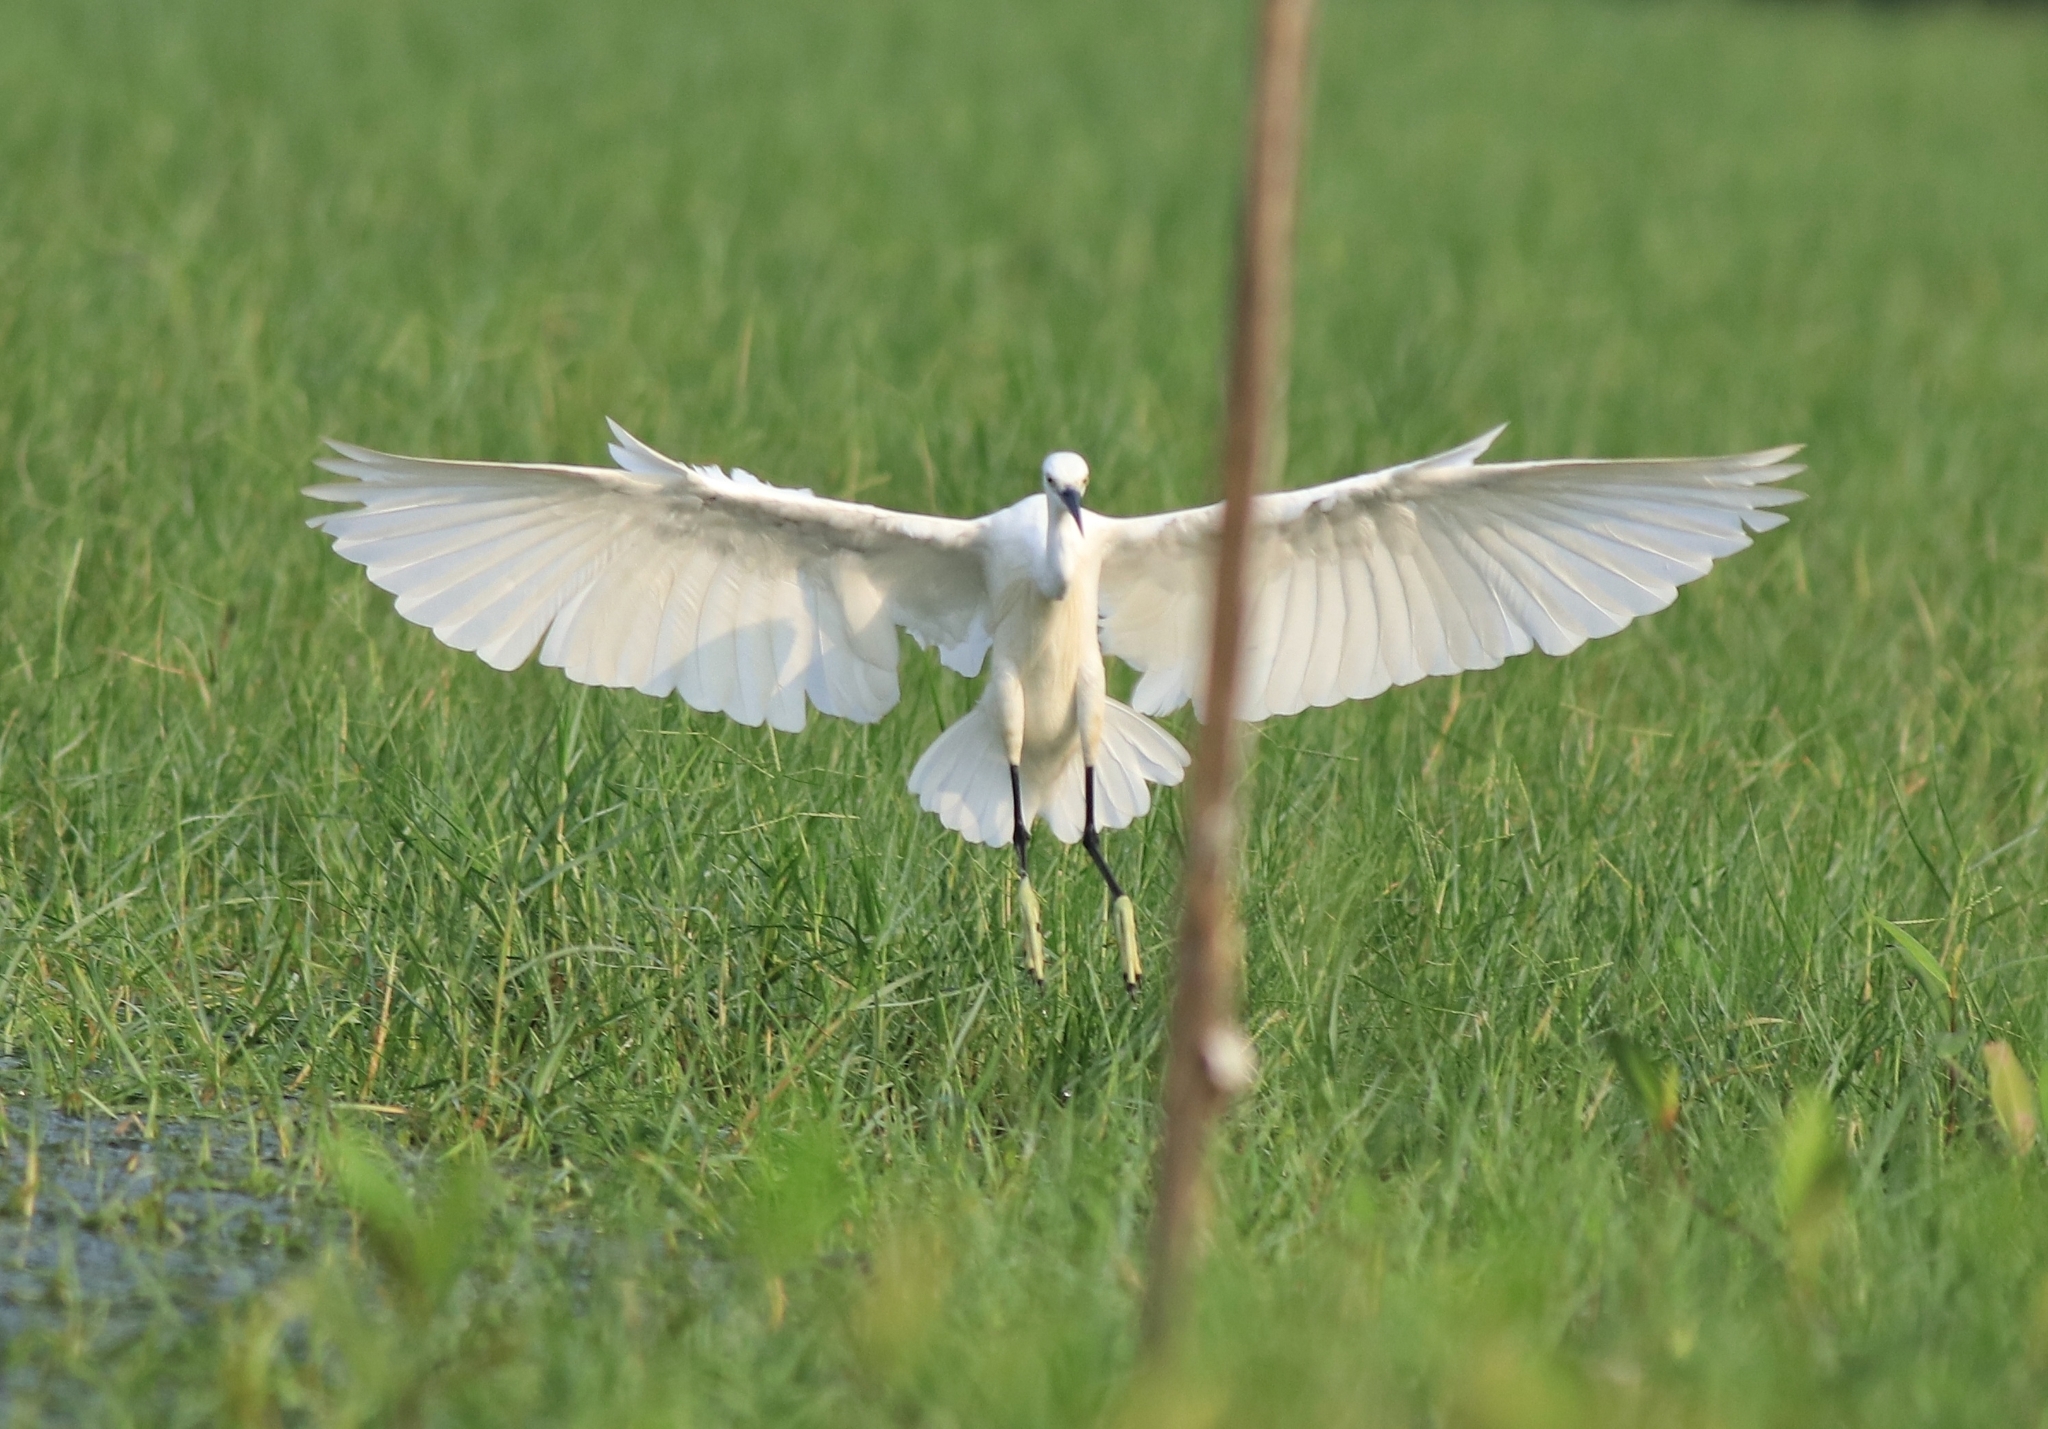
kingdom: Animalia
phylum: Chordata
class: Aves
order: Pelecaniformes
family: Ardeidae
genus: Egretta
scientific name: Egretta garzetta
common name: Little egret
